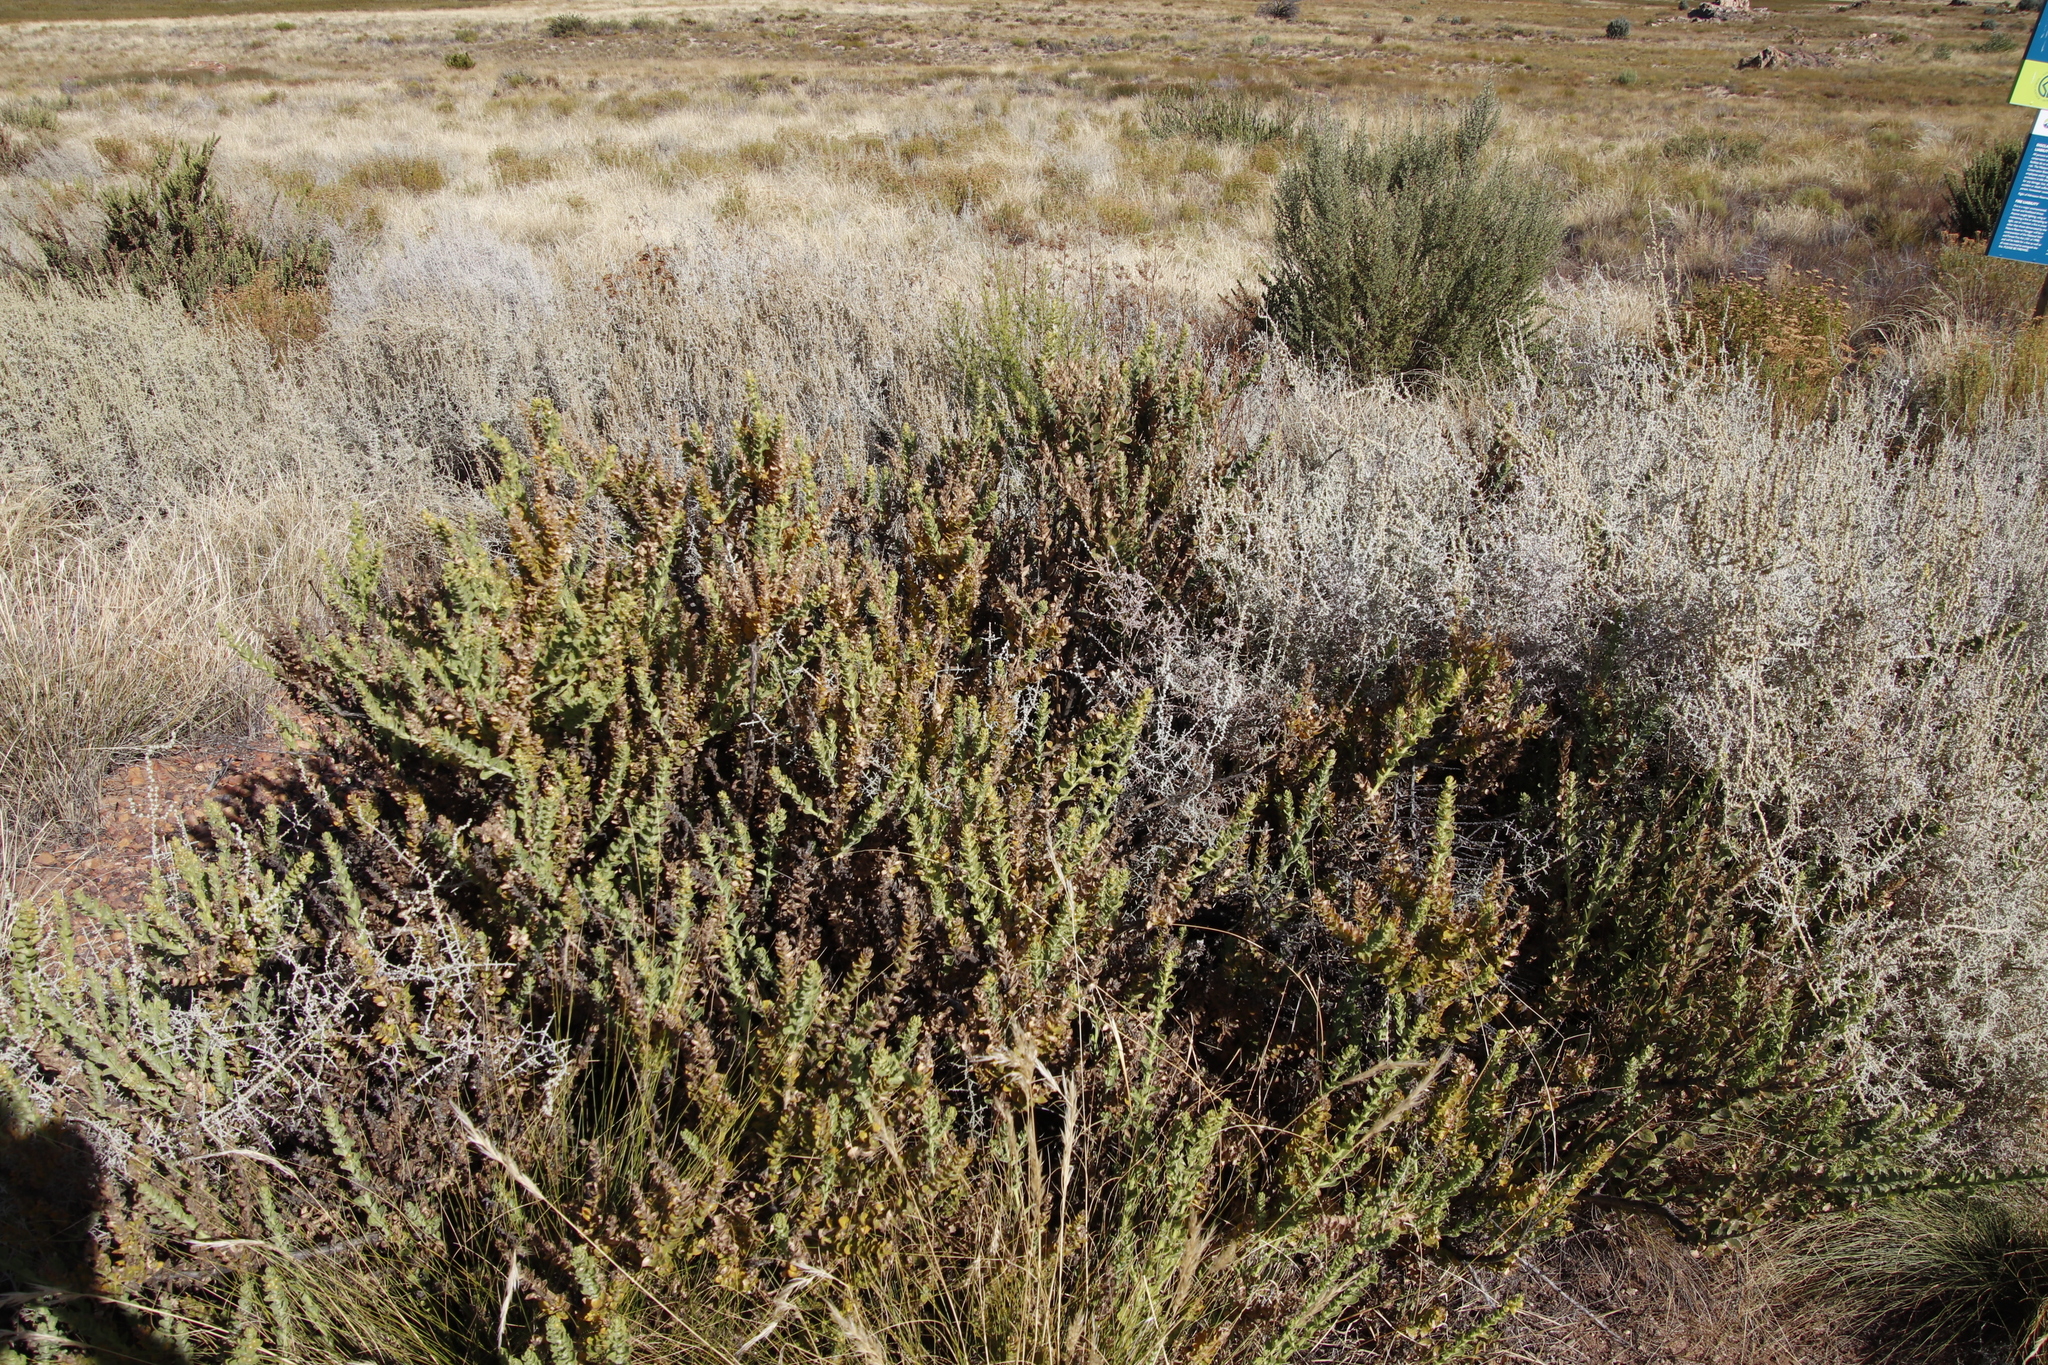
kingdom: Plantae
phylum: Tracheophyta
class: Magnoliopsida
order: Asterales
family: Asteraceae
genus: Seriphium
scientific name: Seriphium plumosum
